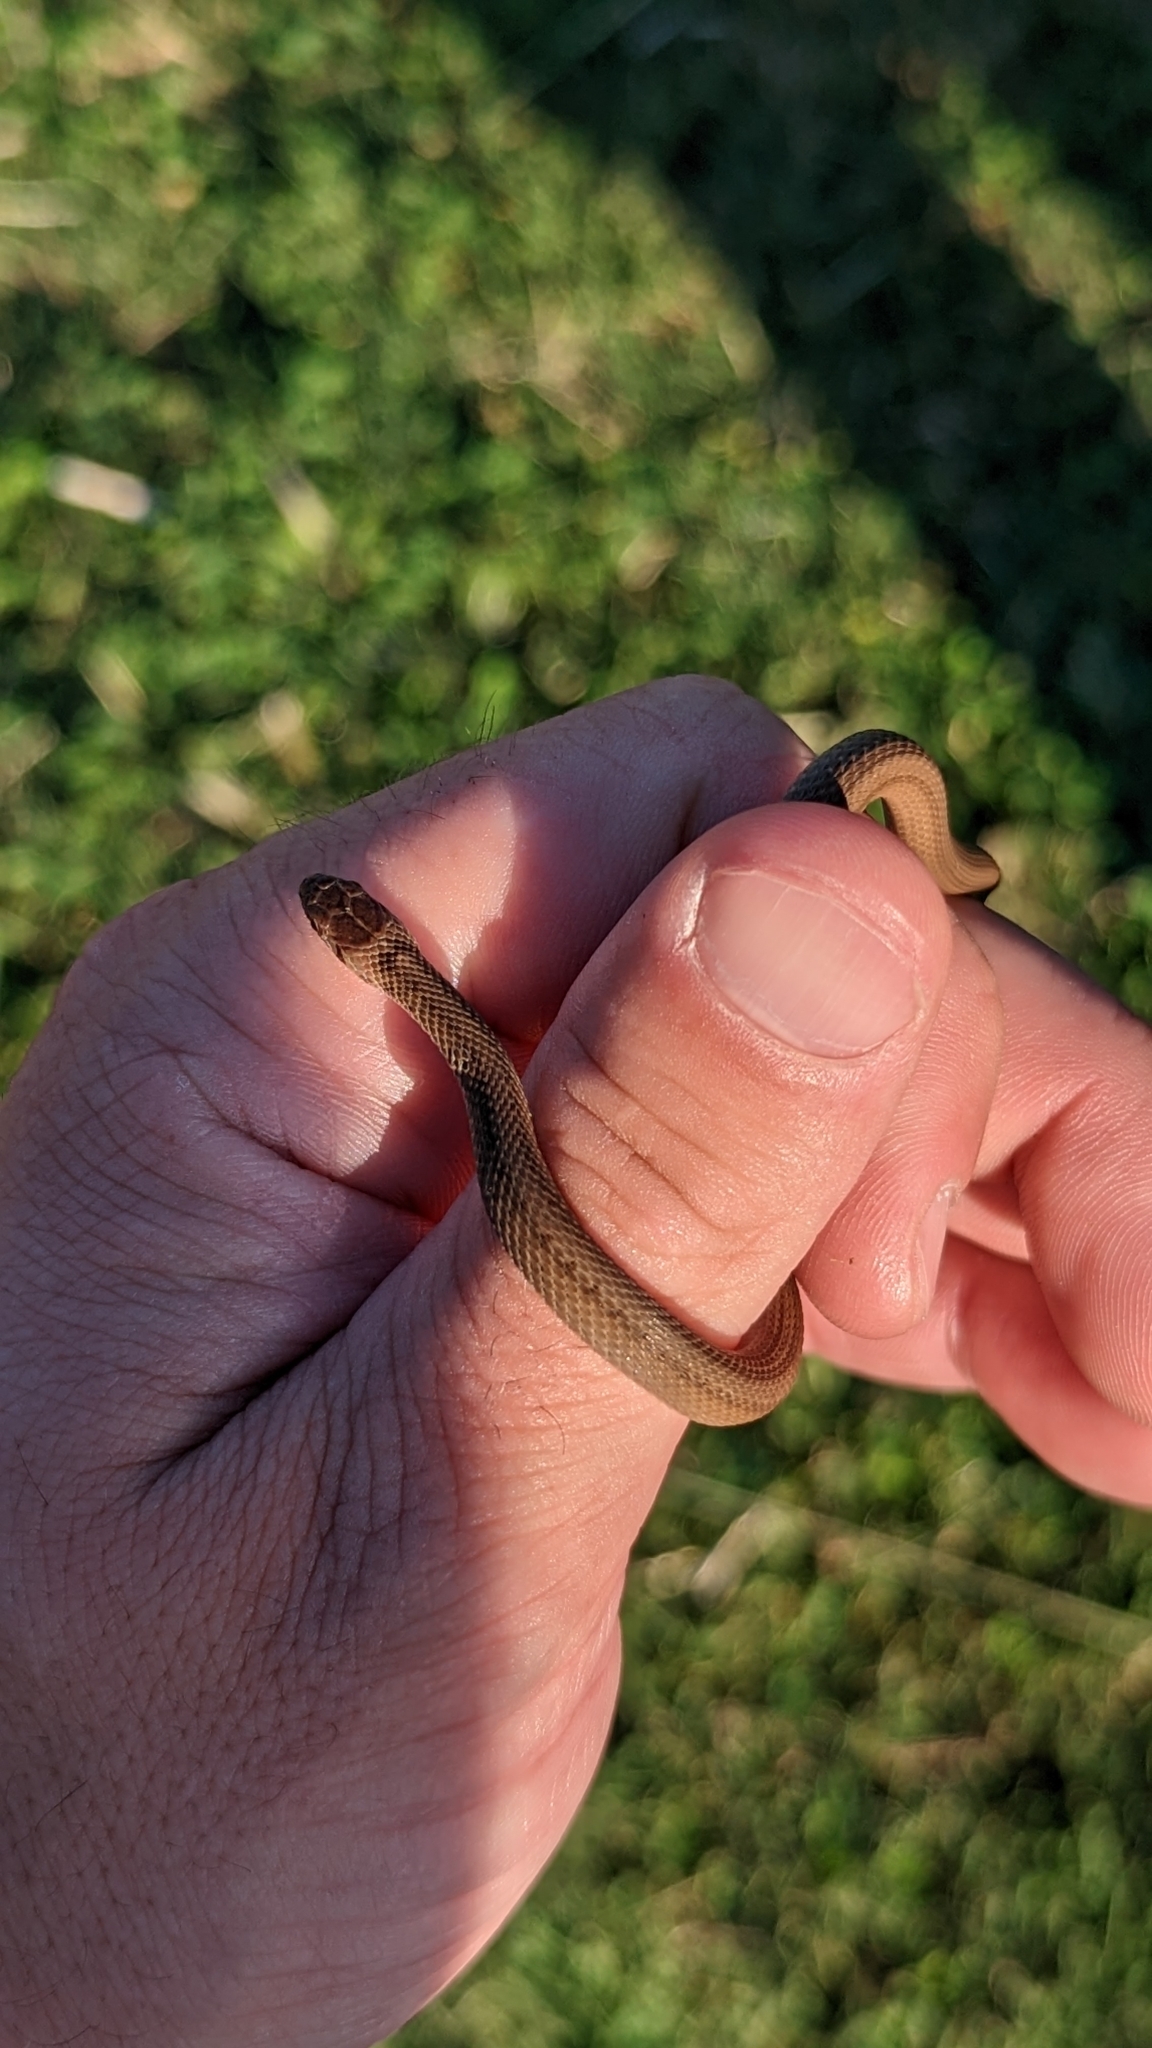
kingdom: Animalia
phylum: Chordata
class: Squamata
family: Colubridae
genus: Storeria
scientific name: Storeria dekayi
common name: (dekay’s) brown snake
